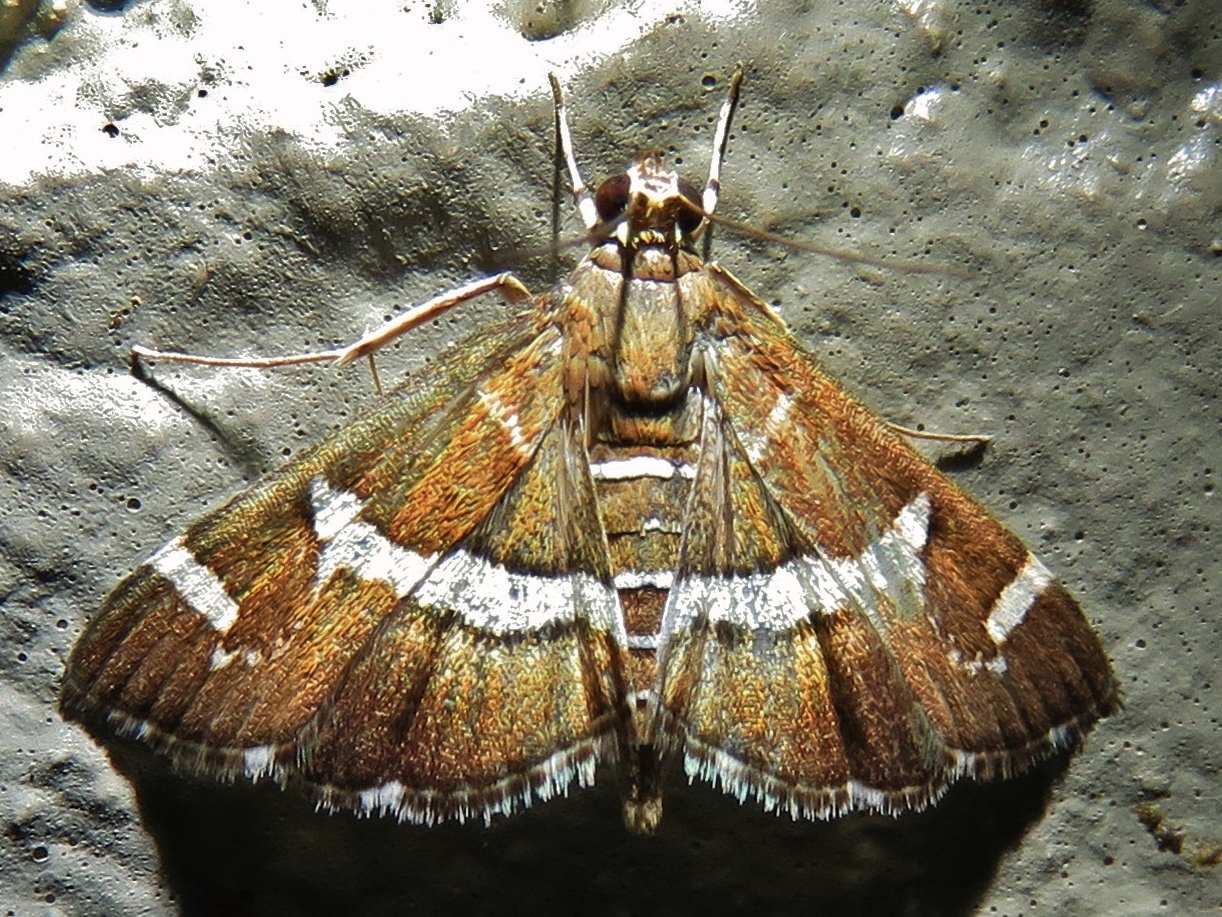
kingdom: Animalia
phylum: Arthropoda
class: Insecta
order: Lepidoptera
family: Crambidae
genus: Spoladea
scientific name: Spoladea recurvalis
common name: Beet webworm moth
